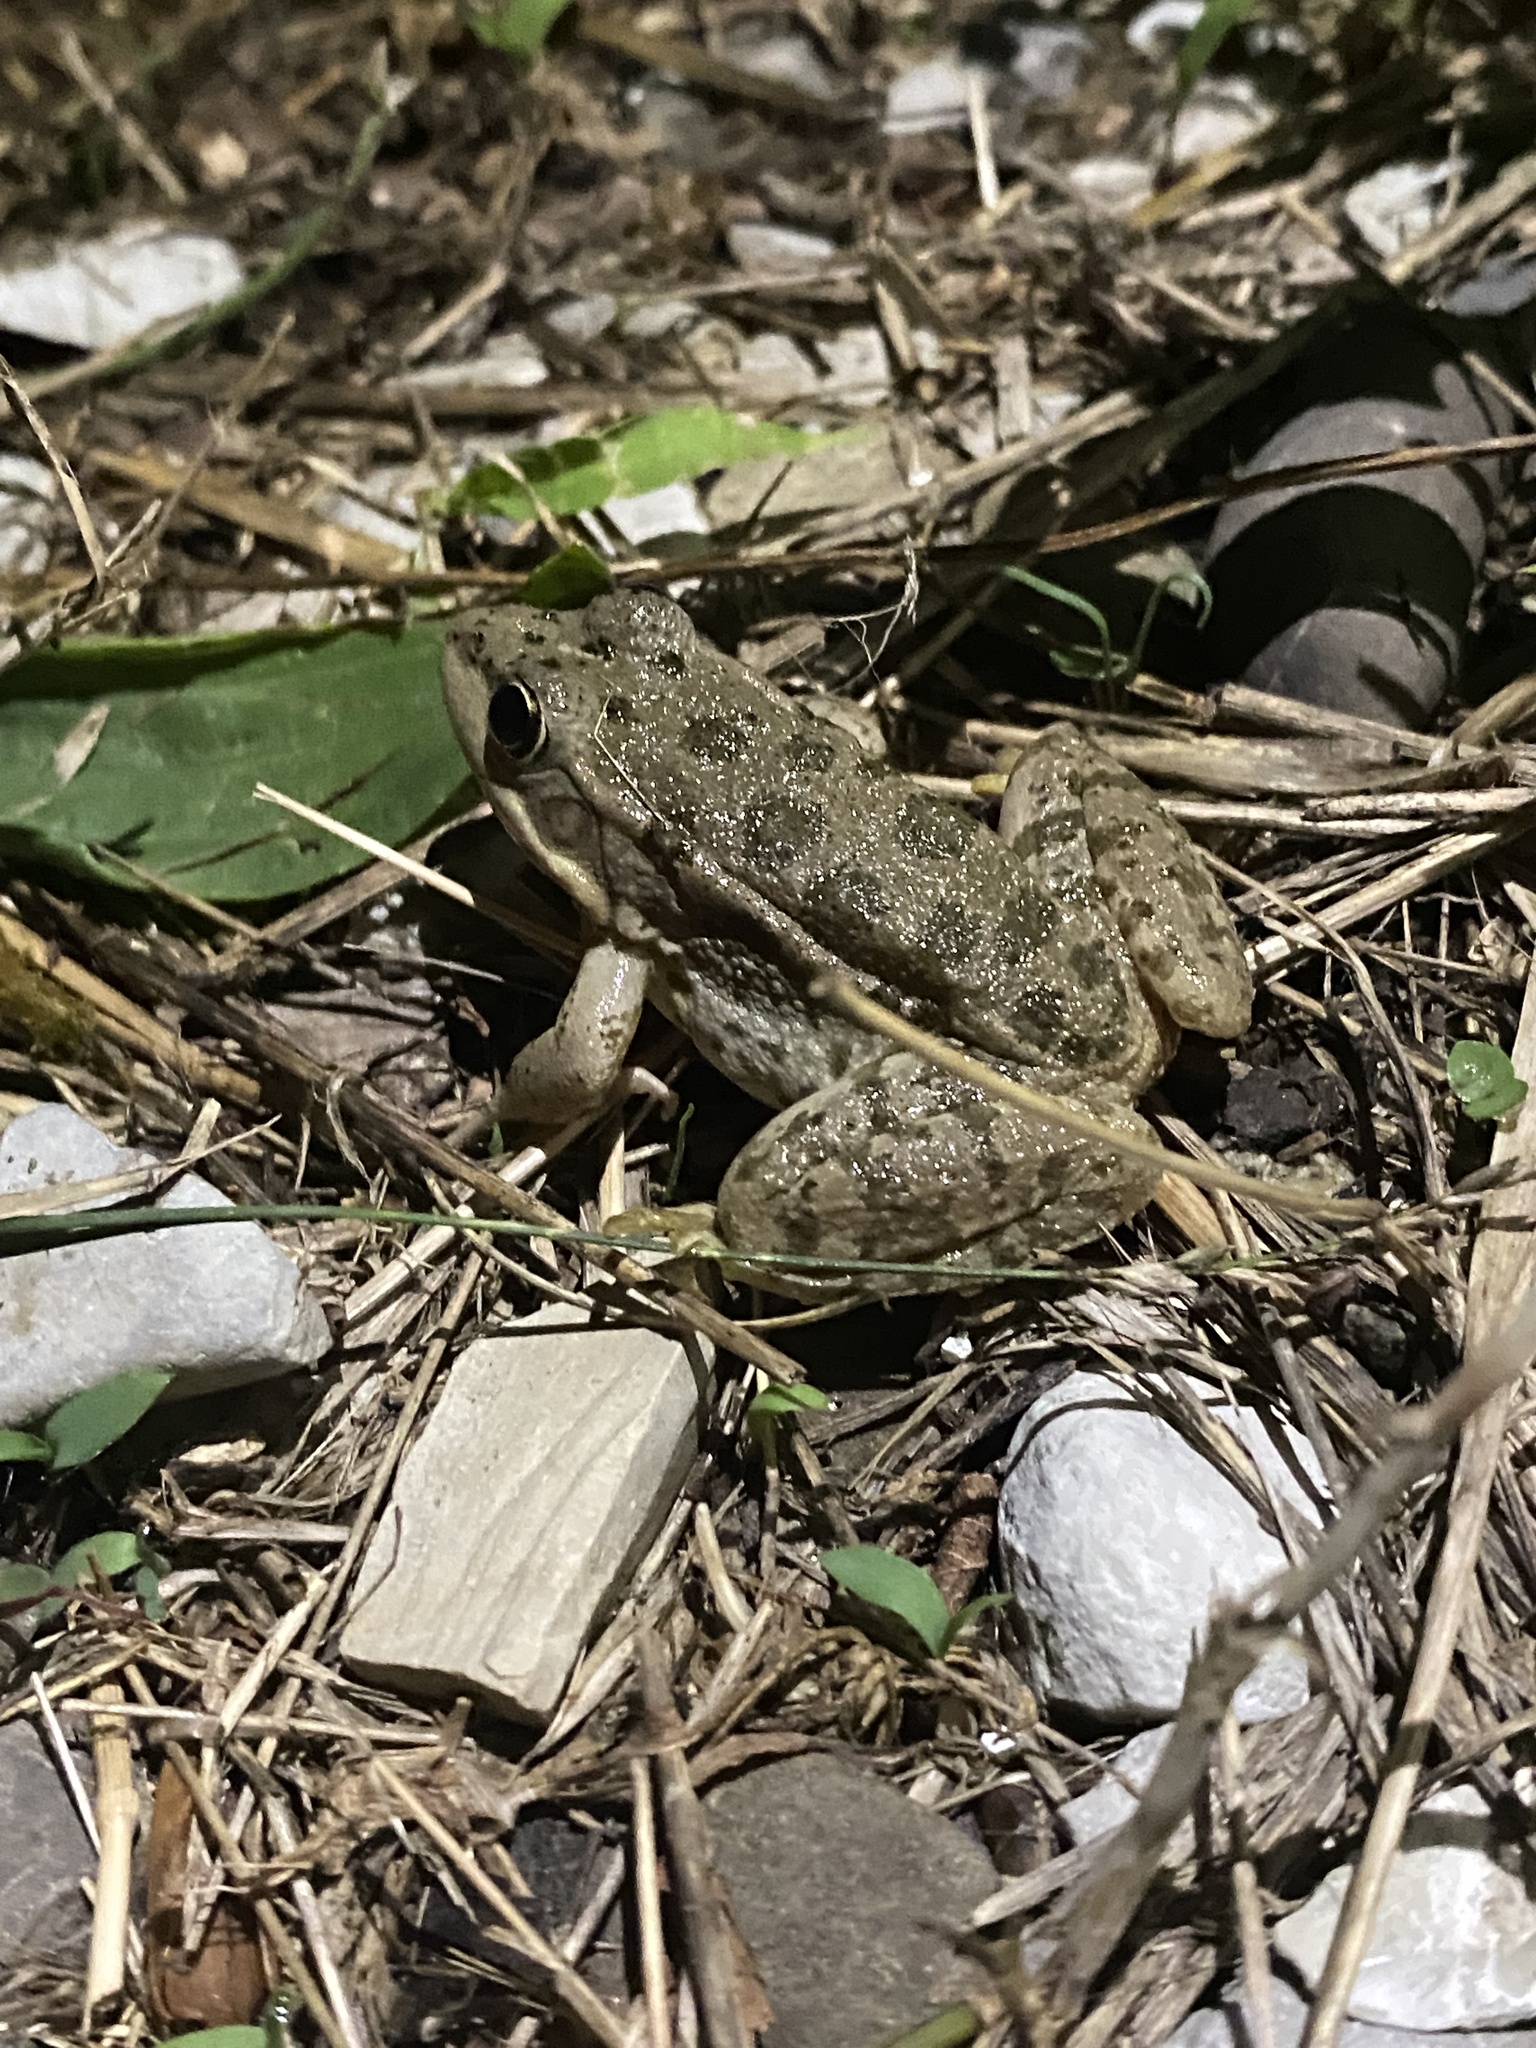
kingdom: Animalia
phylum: Chordata
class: Amphibia
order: Anura
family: Ranidae
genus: Pelophylax
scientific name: Pelophylax ridibundus
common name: Marsh frog
